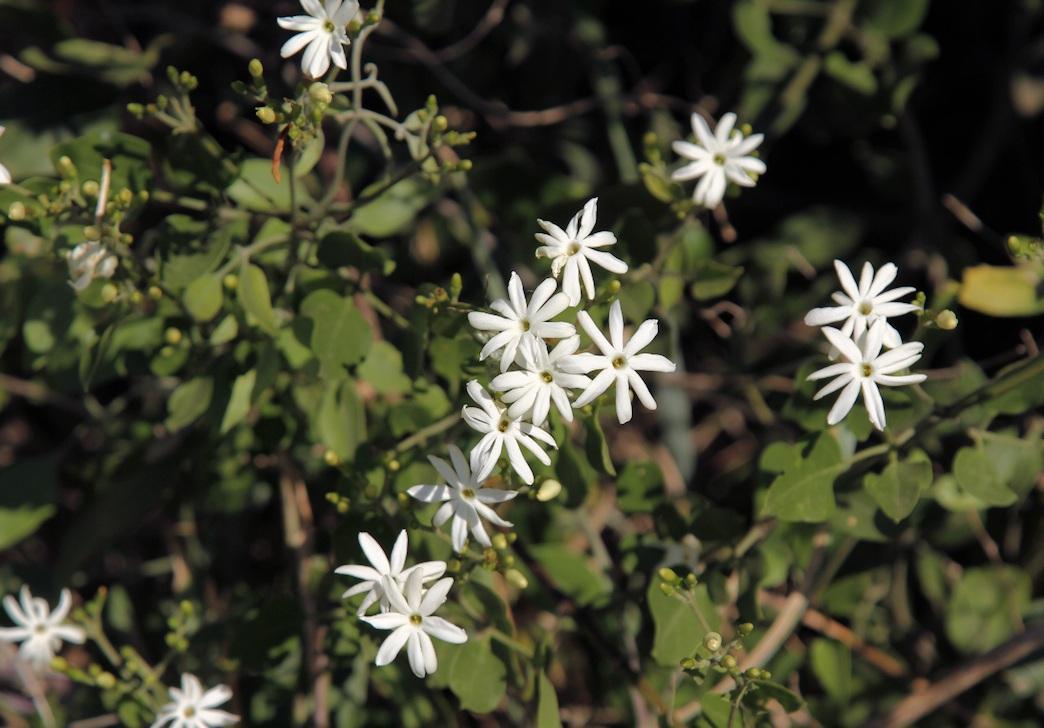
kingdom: Plantae
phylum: Tracheophyta
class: Magnoliopsida
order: Lamiales
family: Oleaceae
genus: Jasminum
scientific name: Jasminum fluminense
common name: Brazilian jasmine
